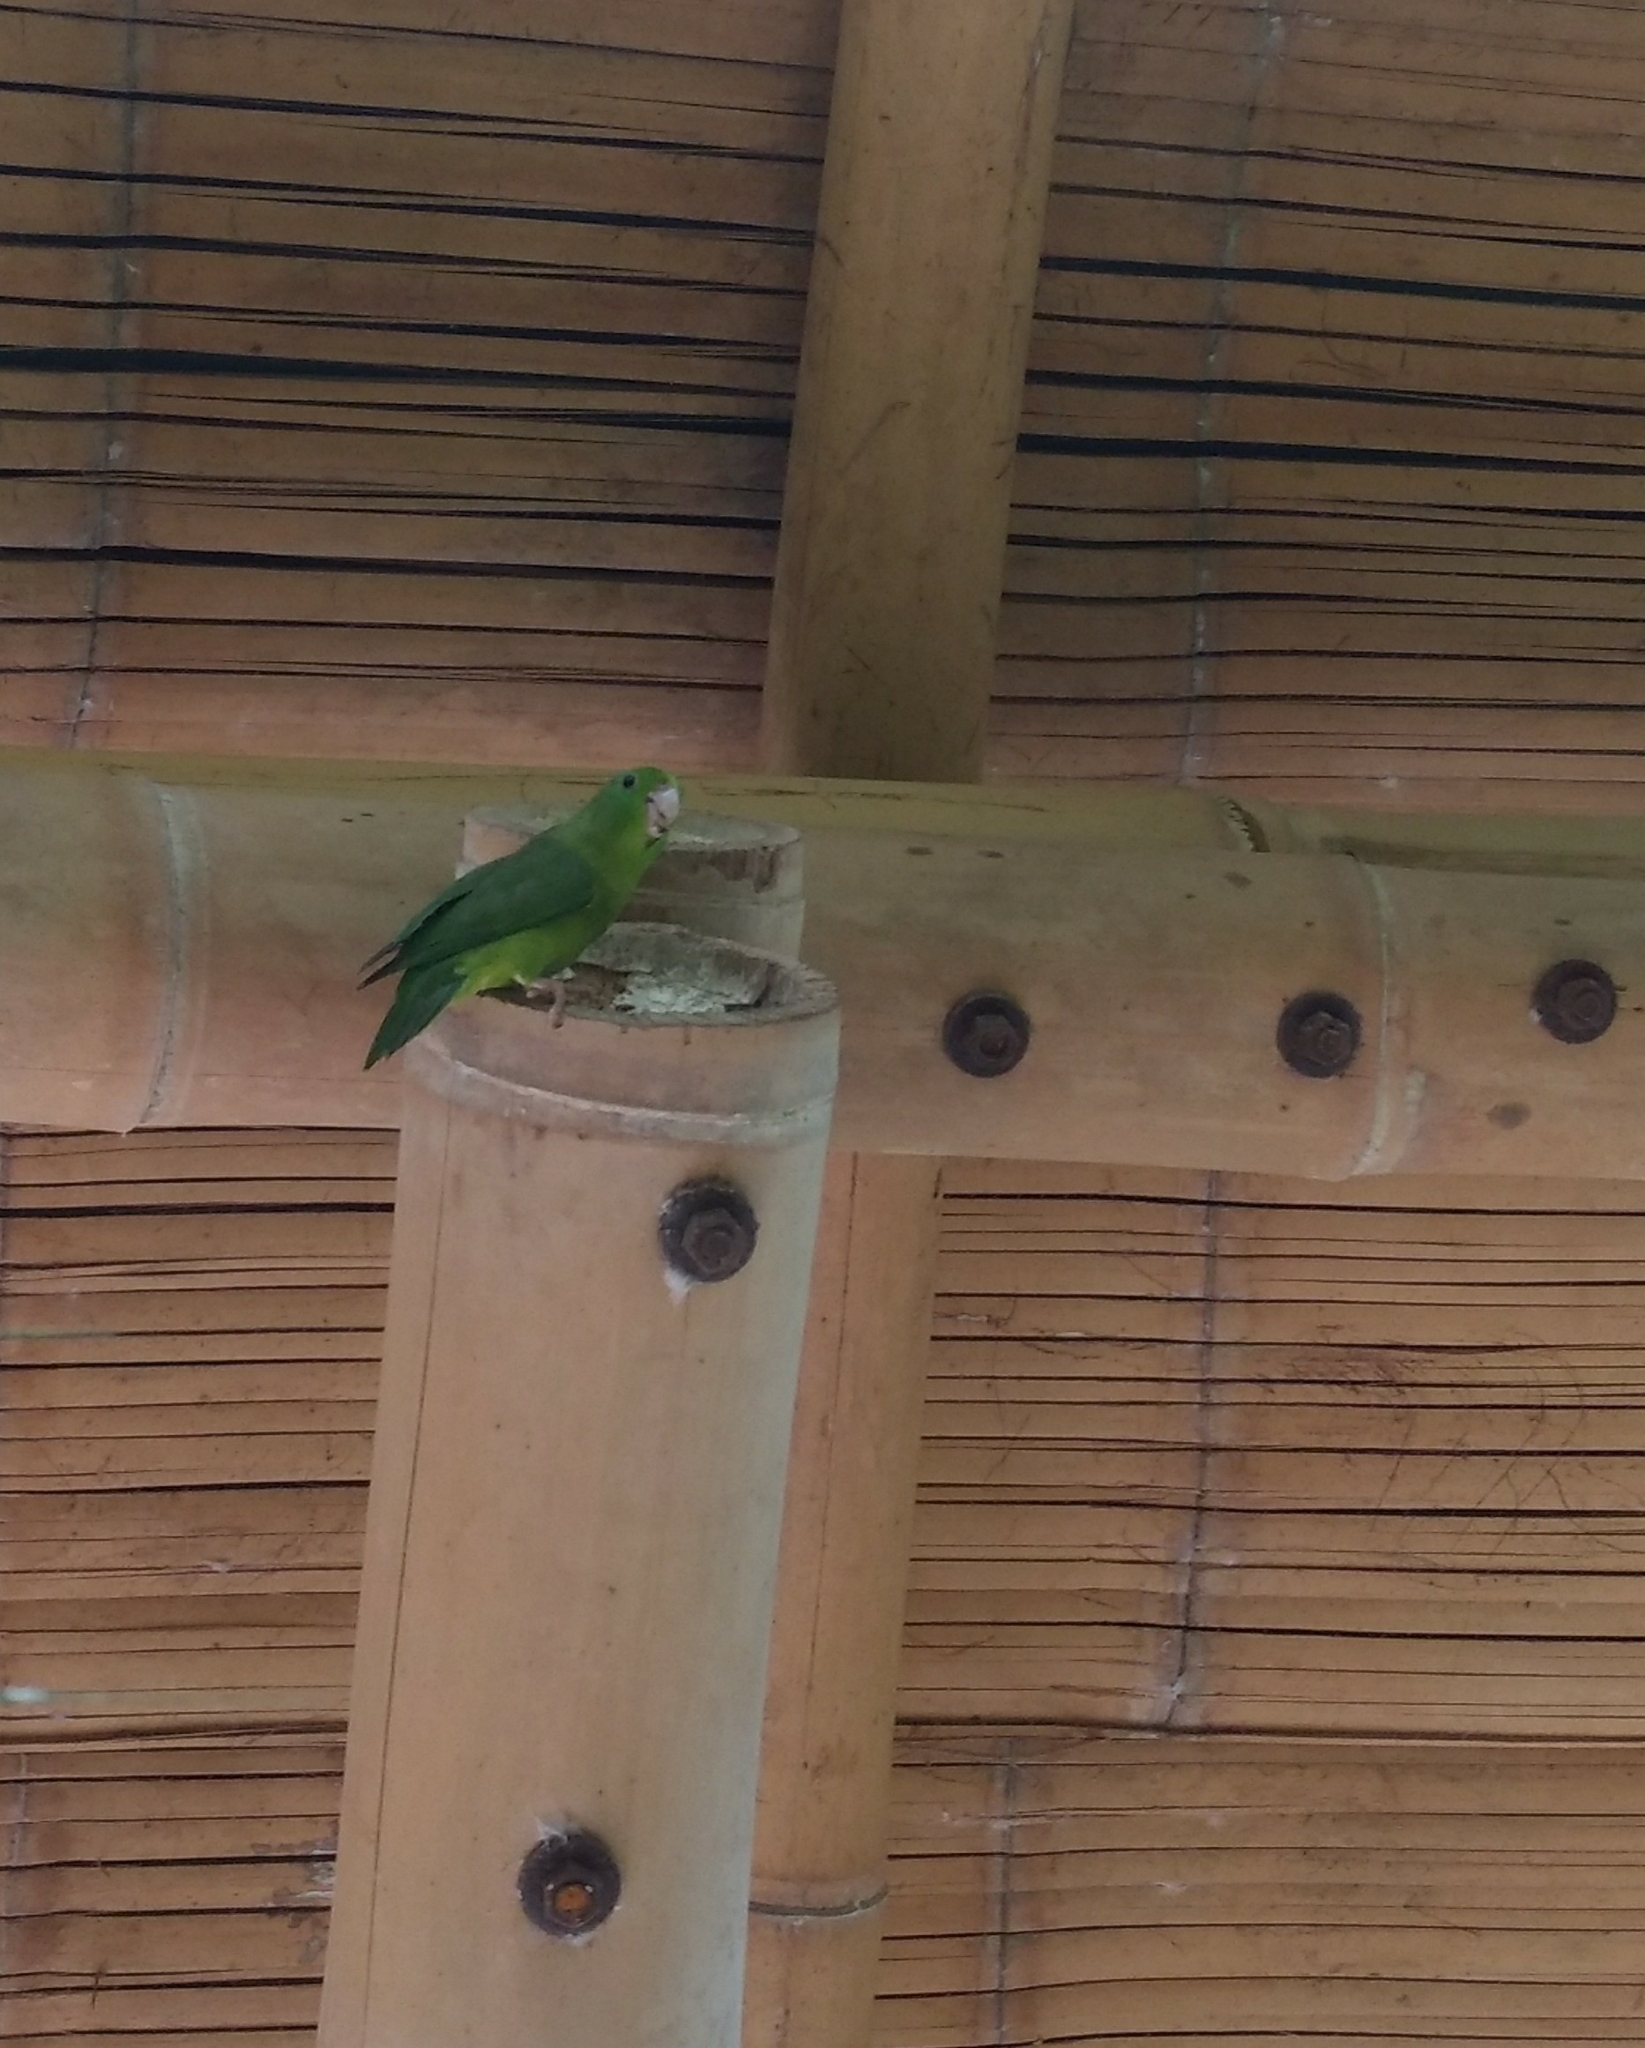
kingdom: Animalia
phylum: Chordata
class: Aves
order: Psittaciformes
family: Psittacidae
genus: Forpus
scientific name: Forpus conspicillatus
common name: Spectacled parrotlet
